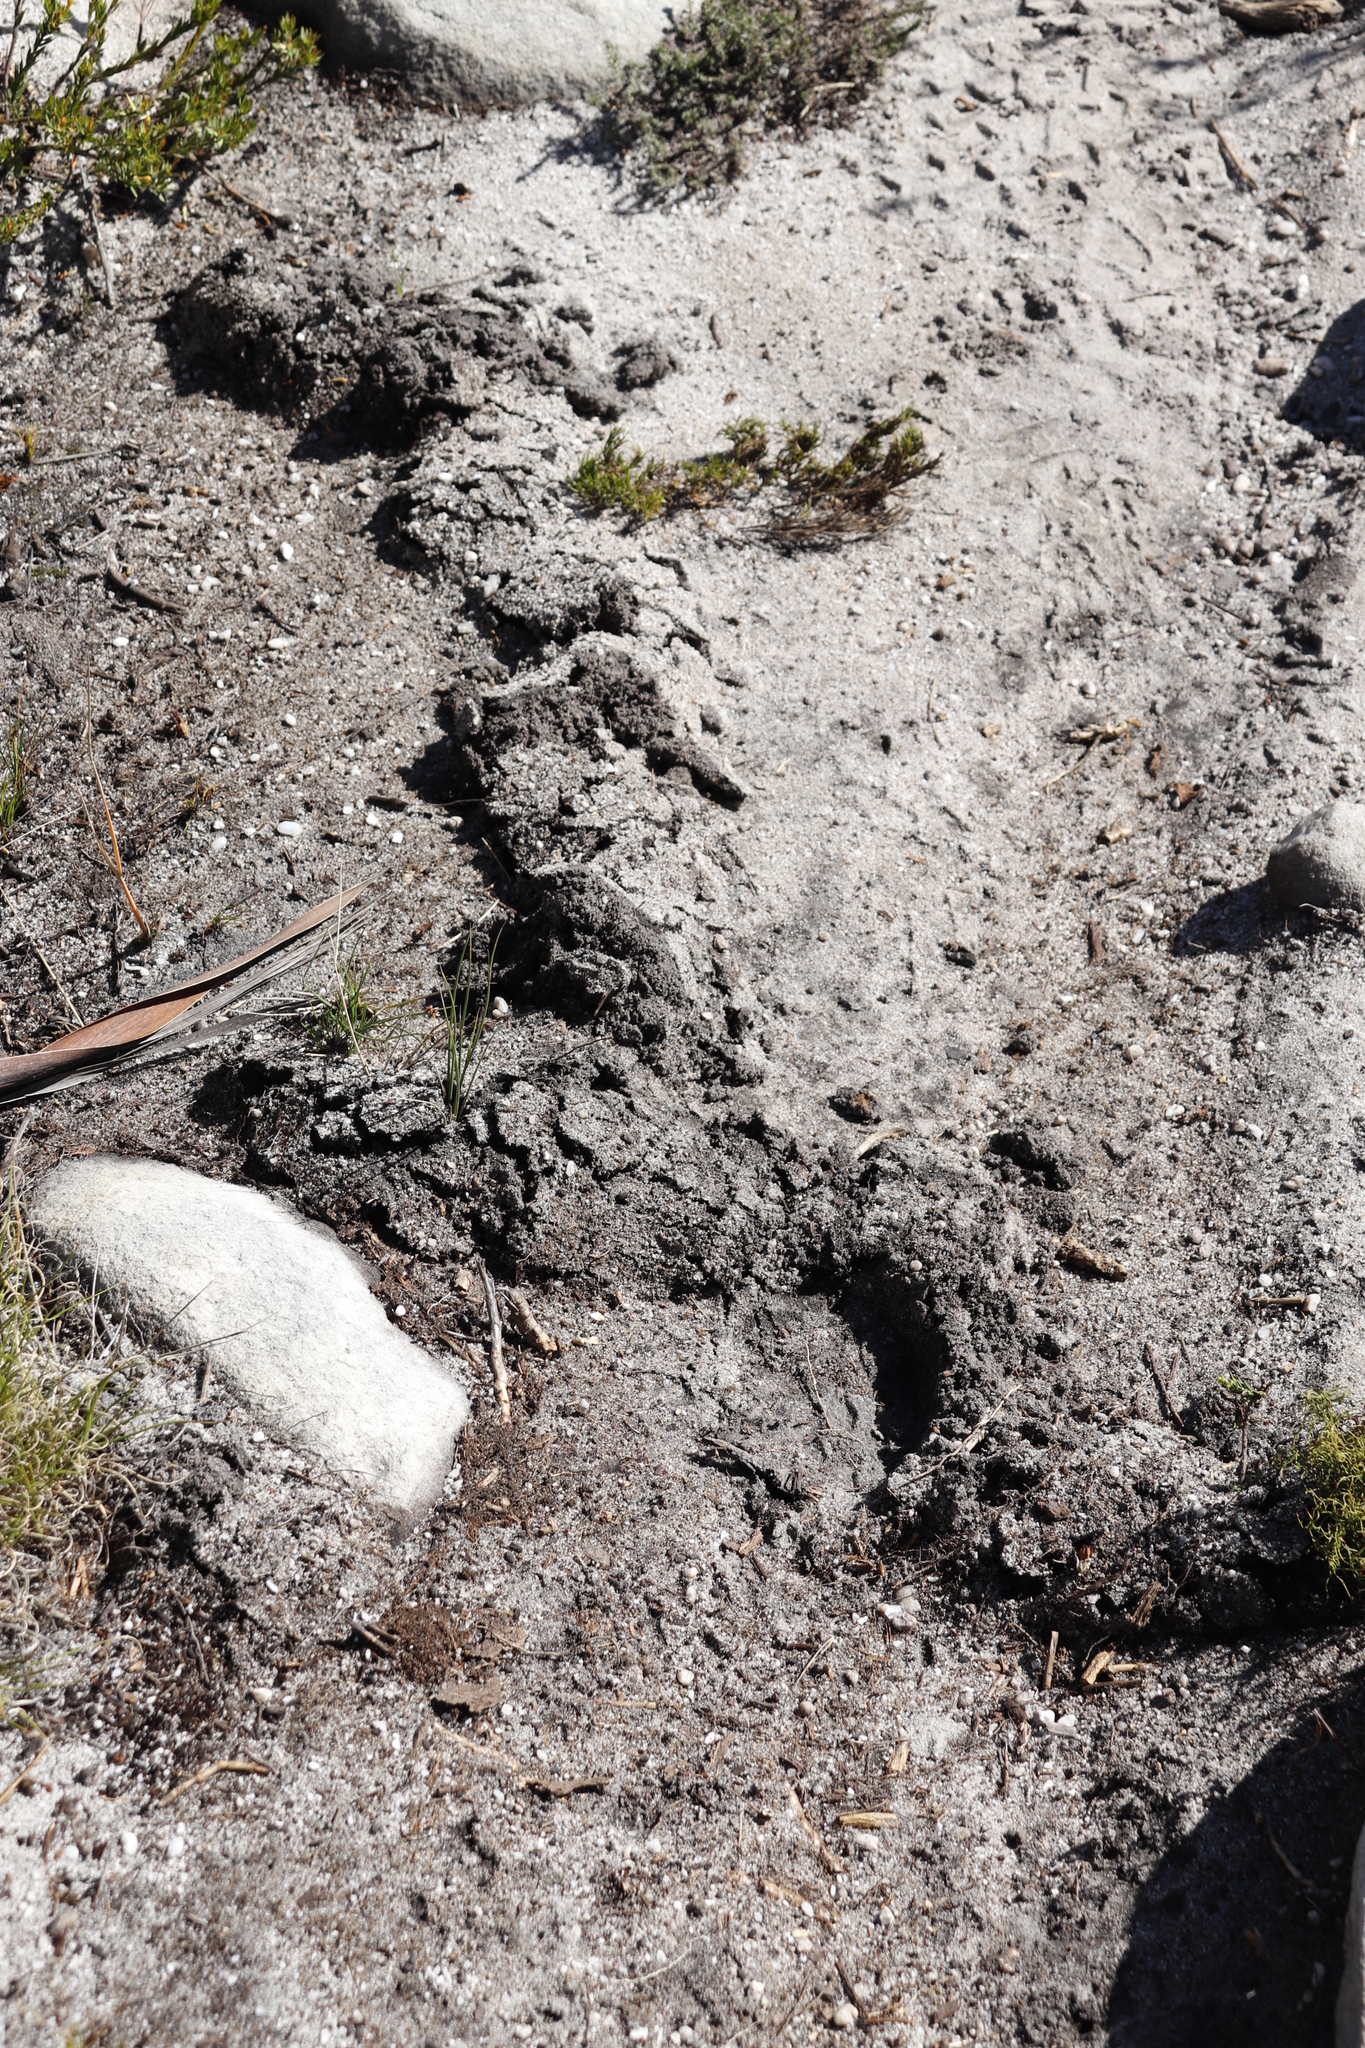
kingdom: Animalia
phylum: Chordata
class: Mammalia
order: Afrosoricida
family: Chrysochloridae
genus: Chrysochloris
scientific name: Chrysochloris asiatica
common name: Cape golden mole
